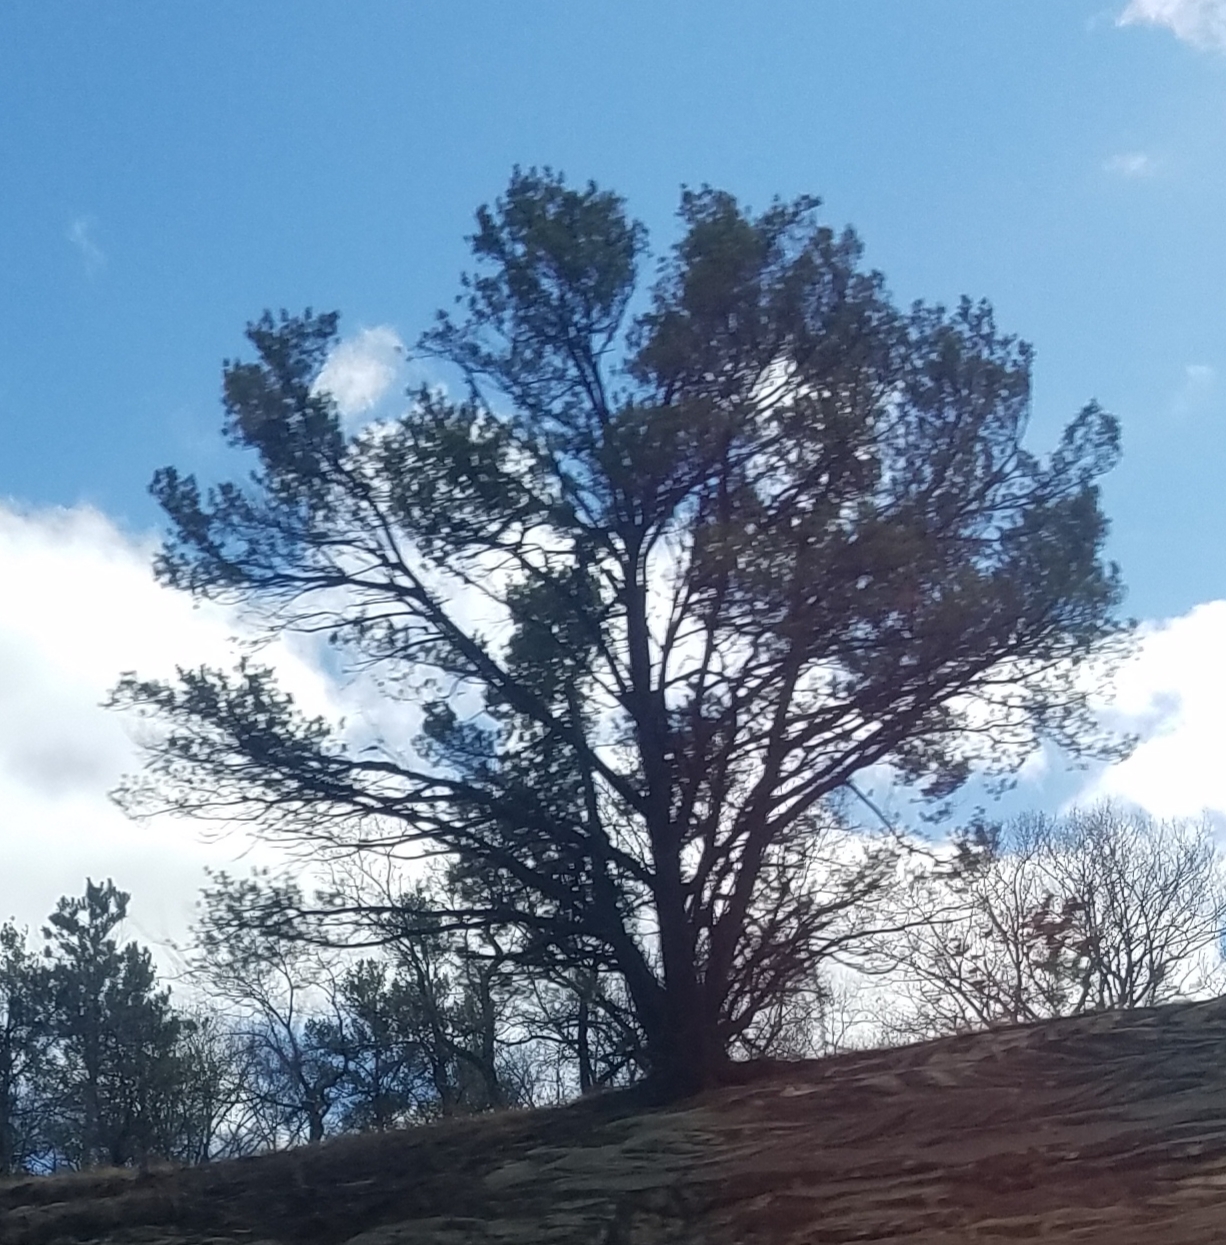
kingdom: Plantae
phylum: Tracheophyta
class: Pinopsida
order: Pinales
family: Pinaceae
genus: Pinus
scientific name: Pinus strobus
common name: Weymouth pine
